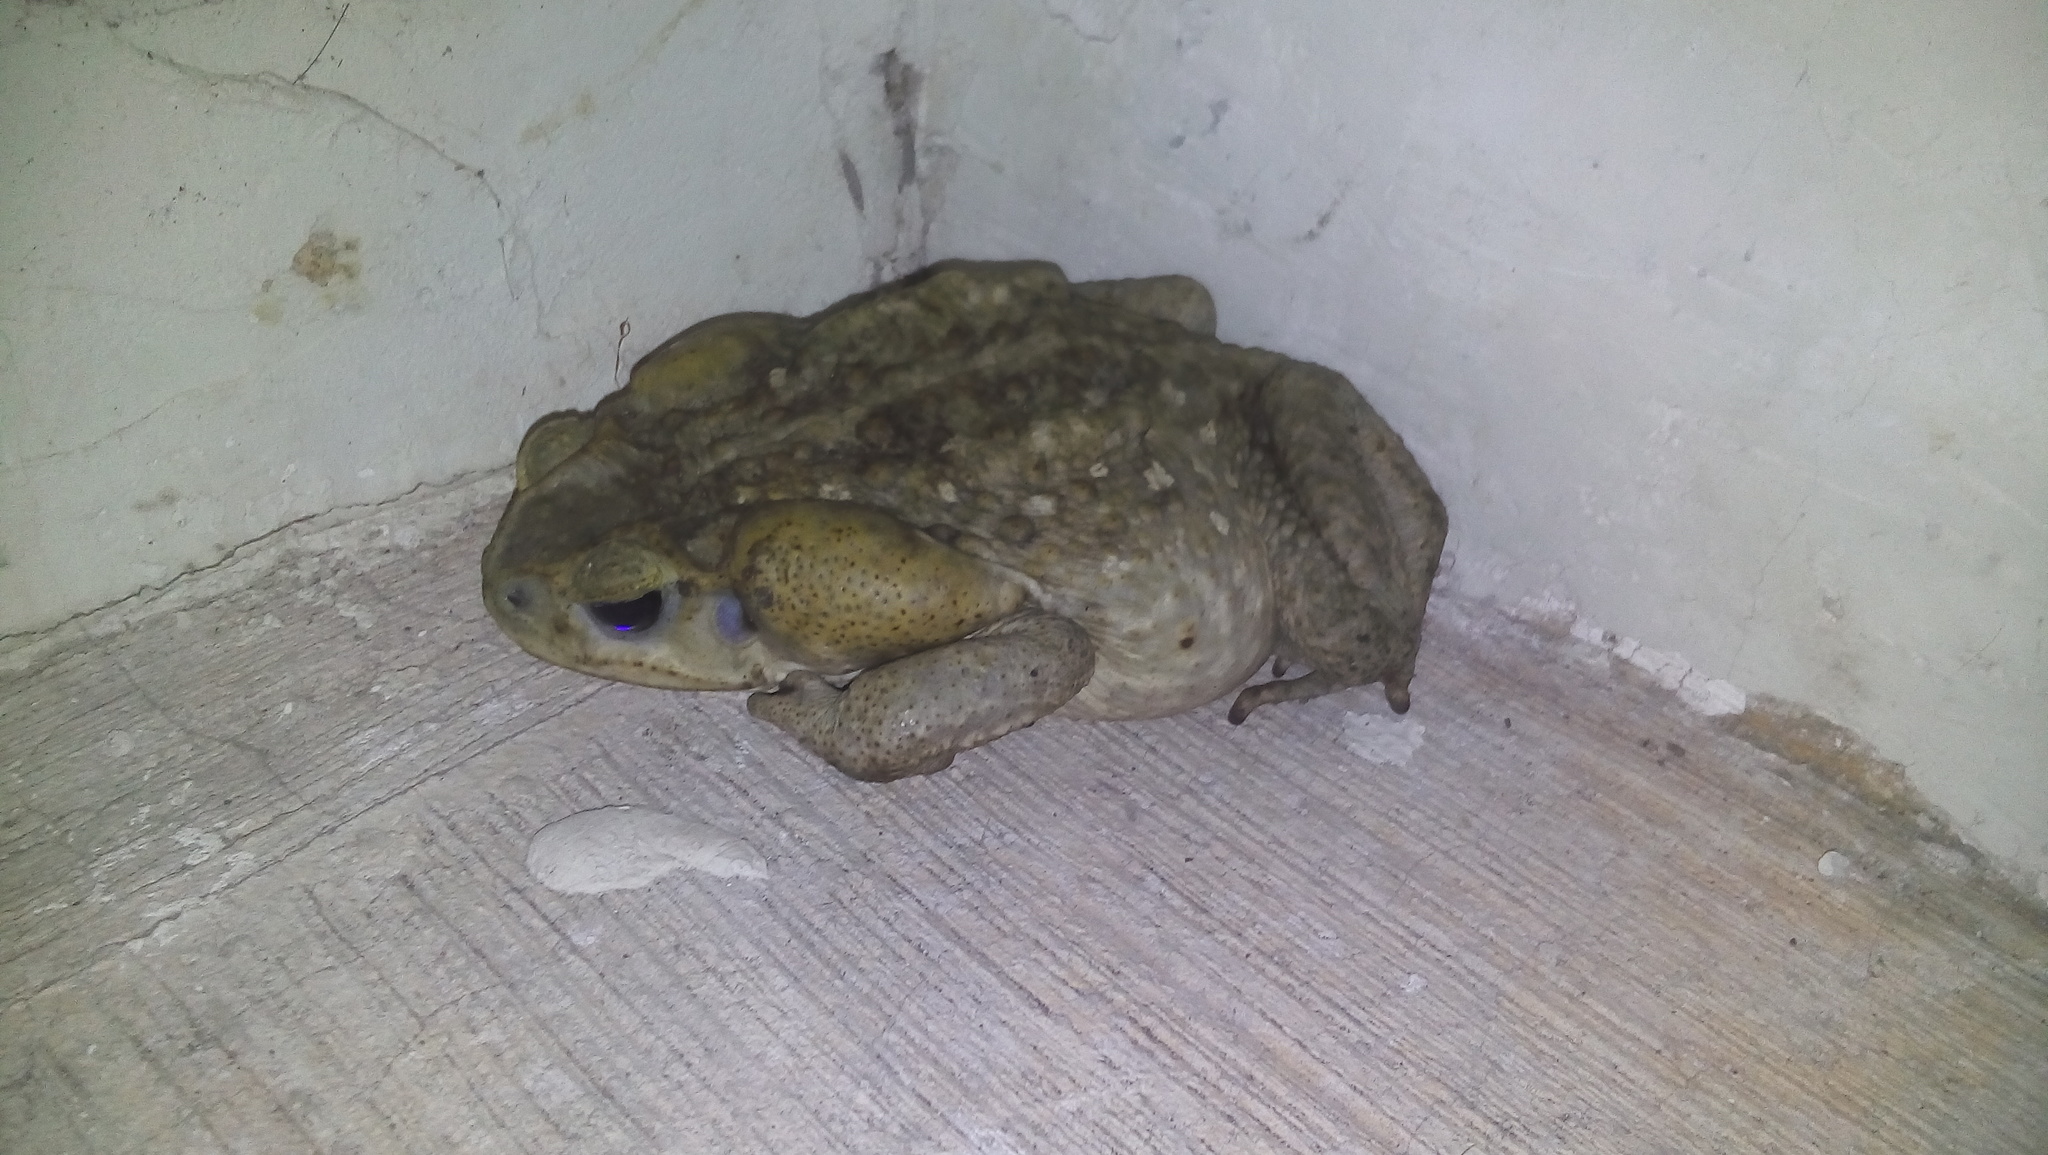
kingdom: Animalia
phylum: Chordata
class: Amphibia
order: Anura
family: Bufonidae
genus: Rhinella
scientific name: Rhinella horribilis
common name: Mesoamerican cane toad
